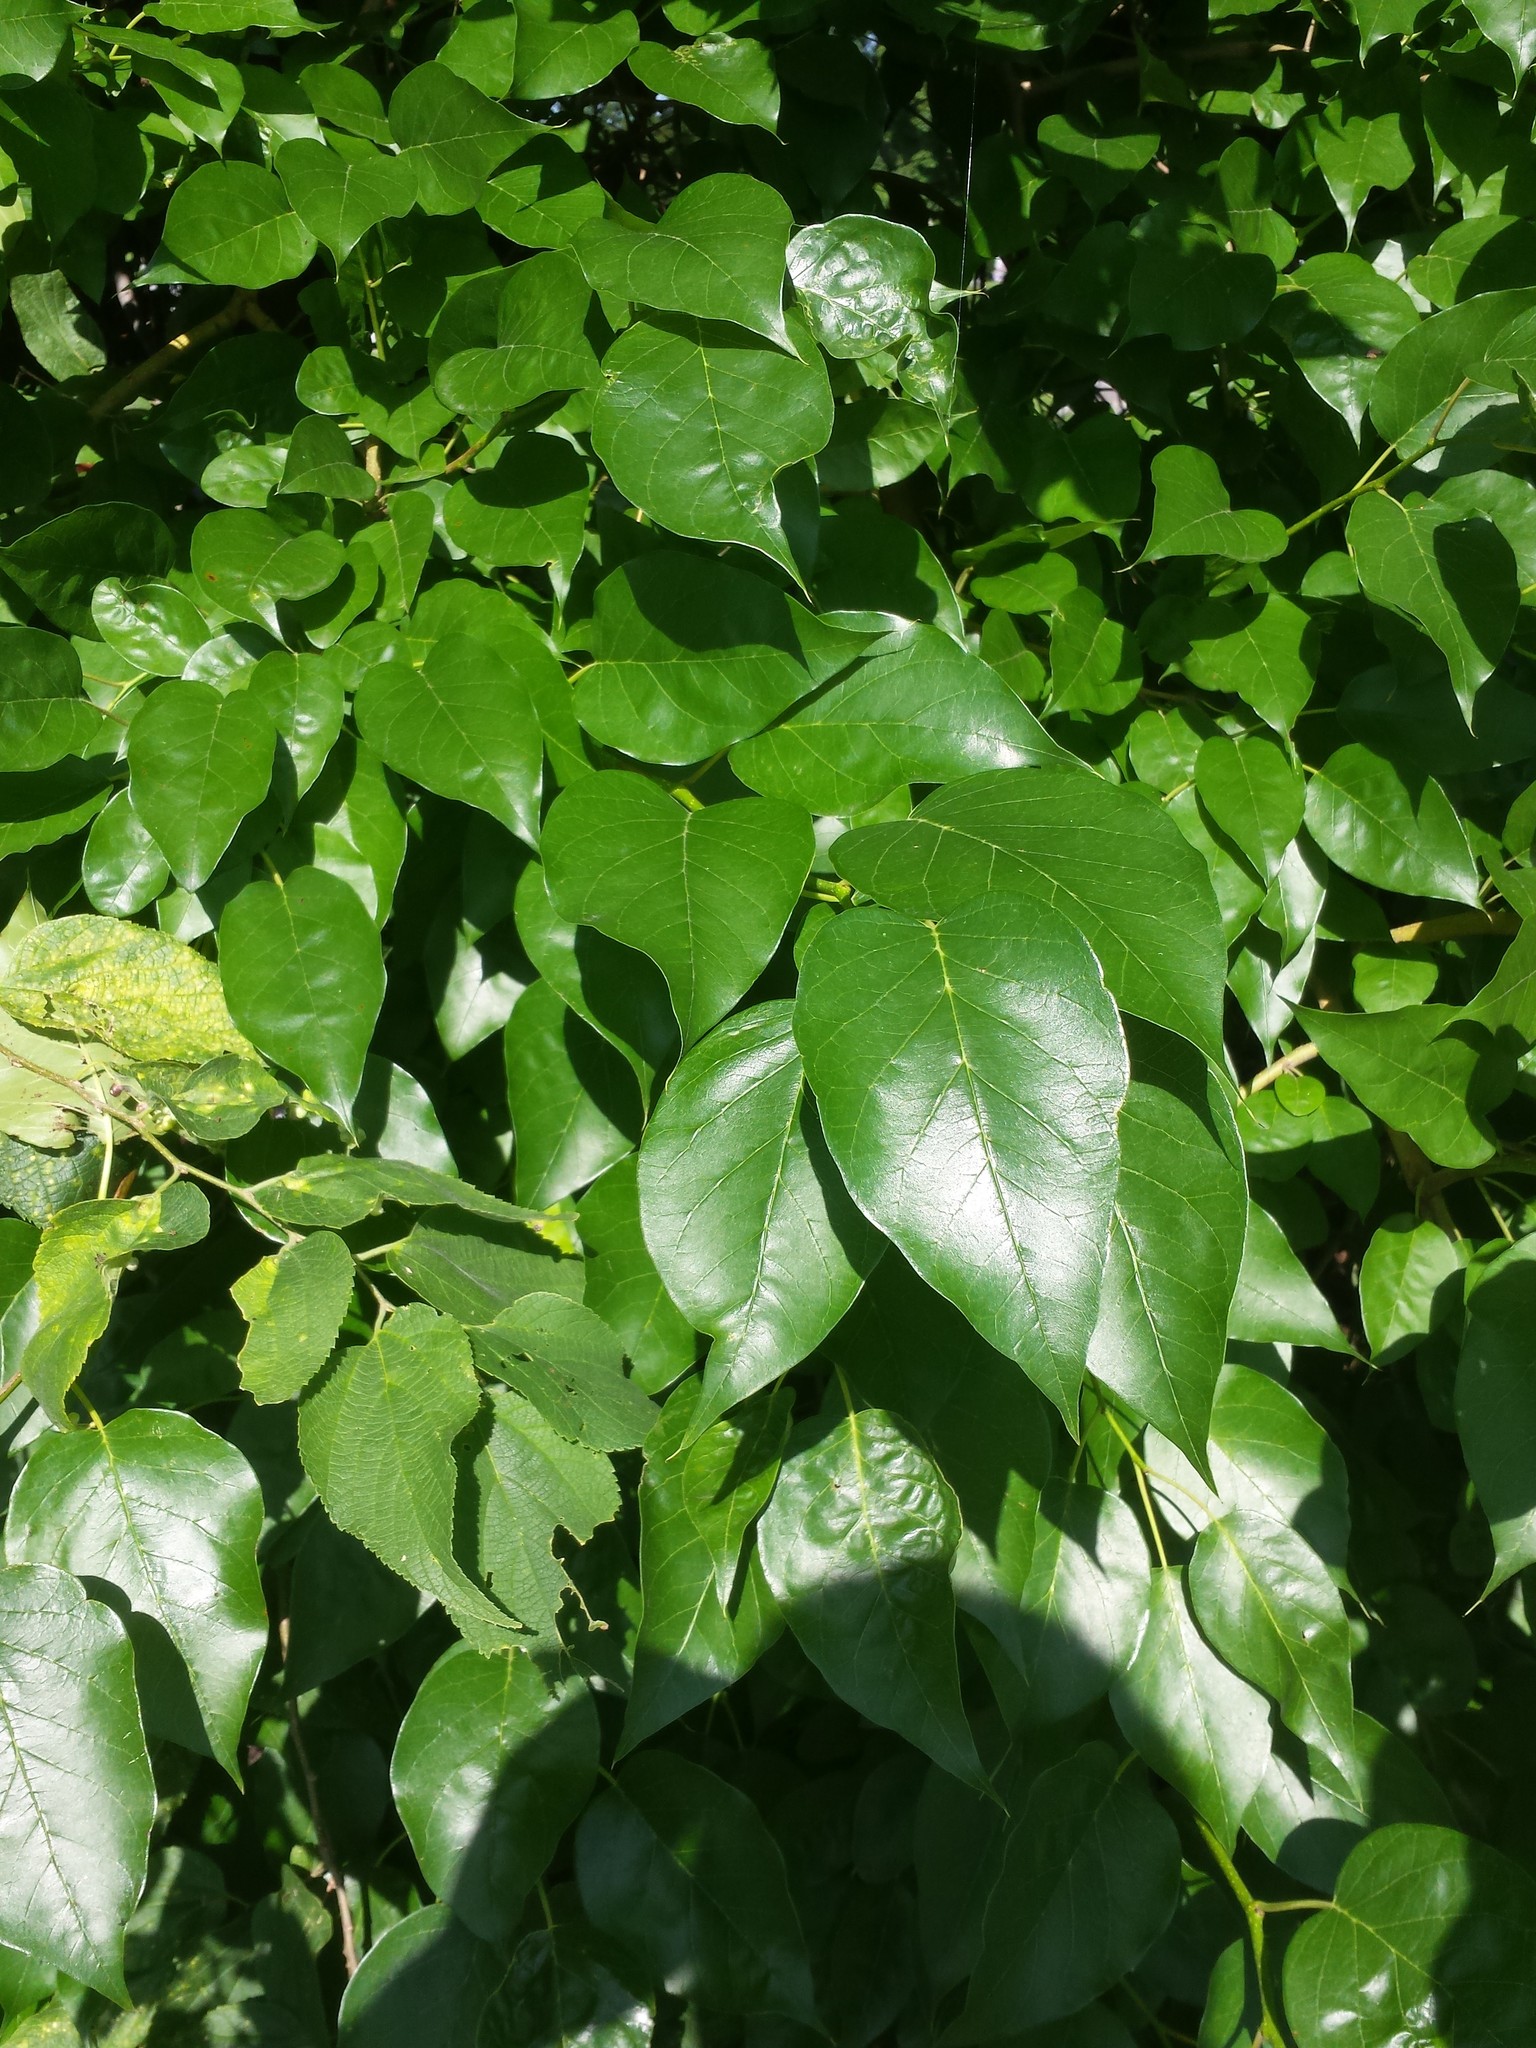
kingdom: Plantae
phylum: Tracheophyta
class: Magnoliopsida
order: Rosales
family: Moraceae
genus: Maclura
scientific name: Maclura pomifera
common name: Osage-orange
